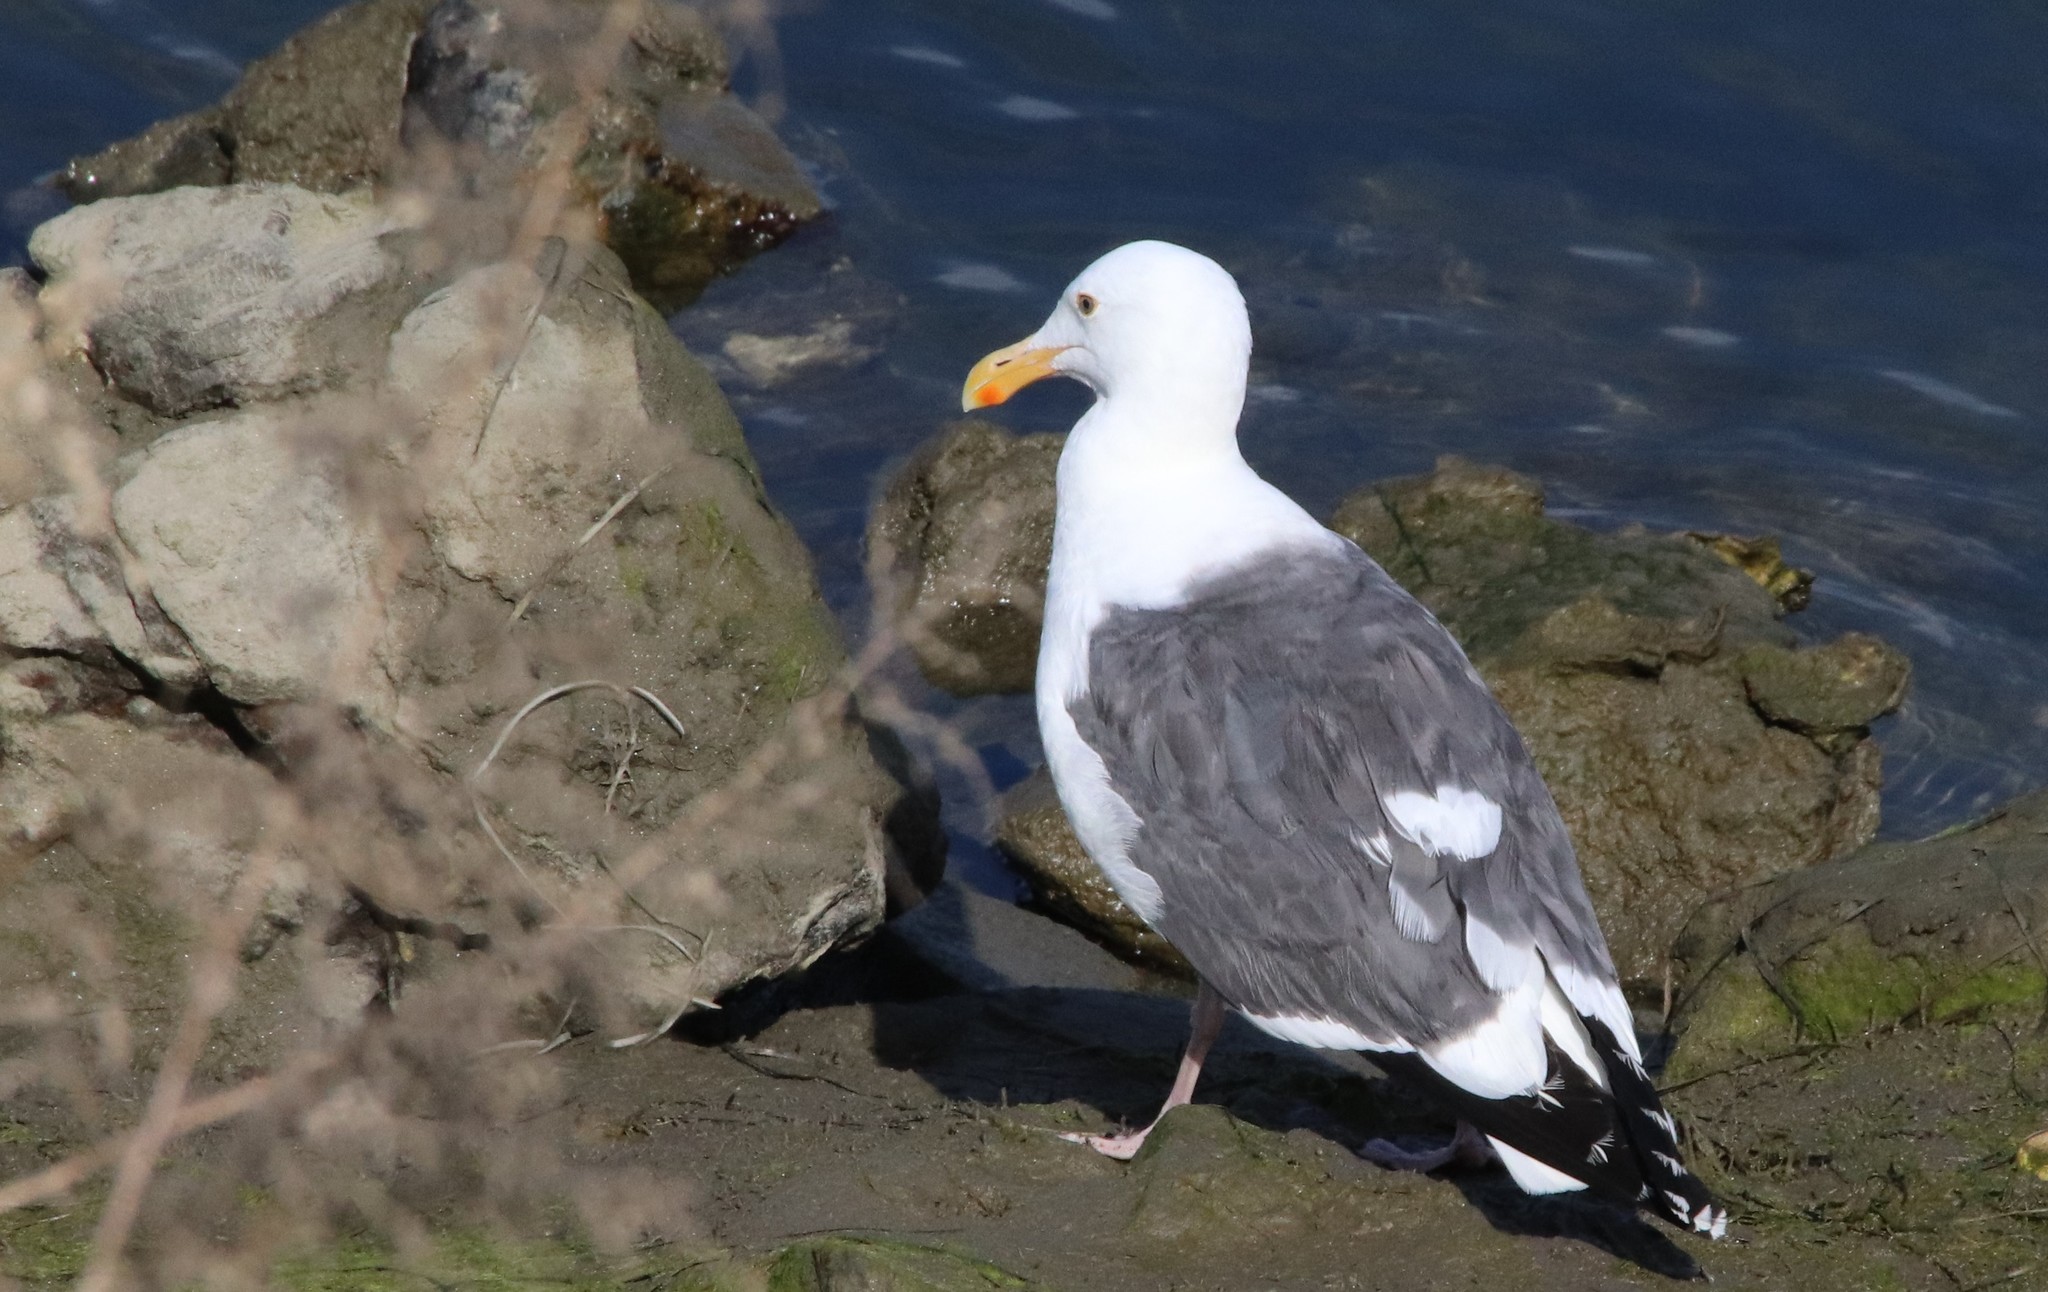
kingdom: Animalia
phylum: Chordata
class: Aves
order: Charadriiformes
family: Laridae
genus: Larus
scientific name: Larus occidentalis
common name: Western gull
